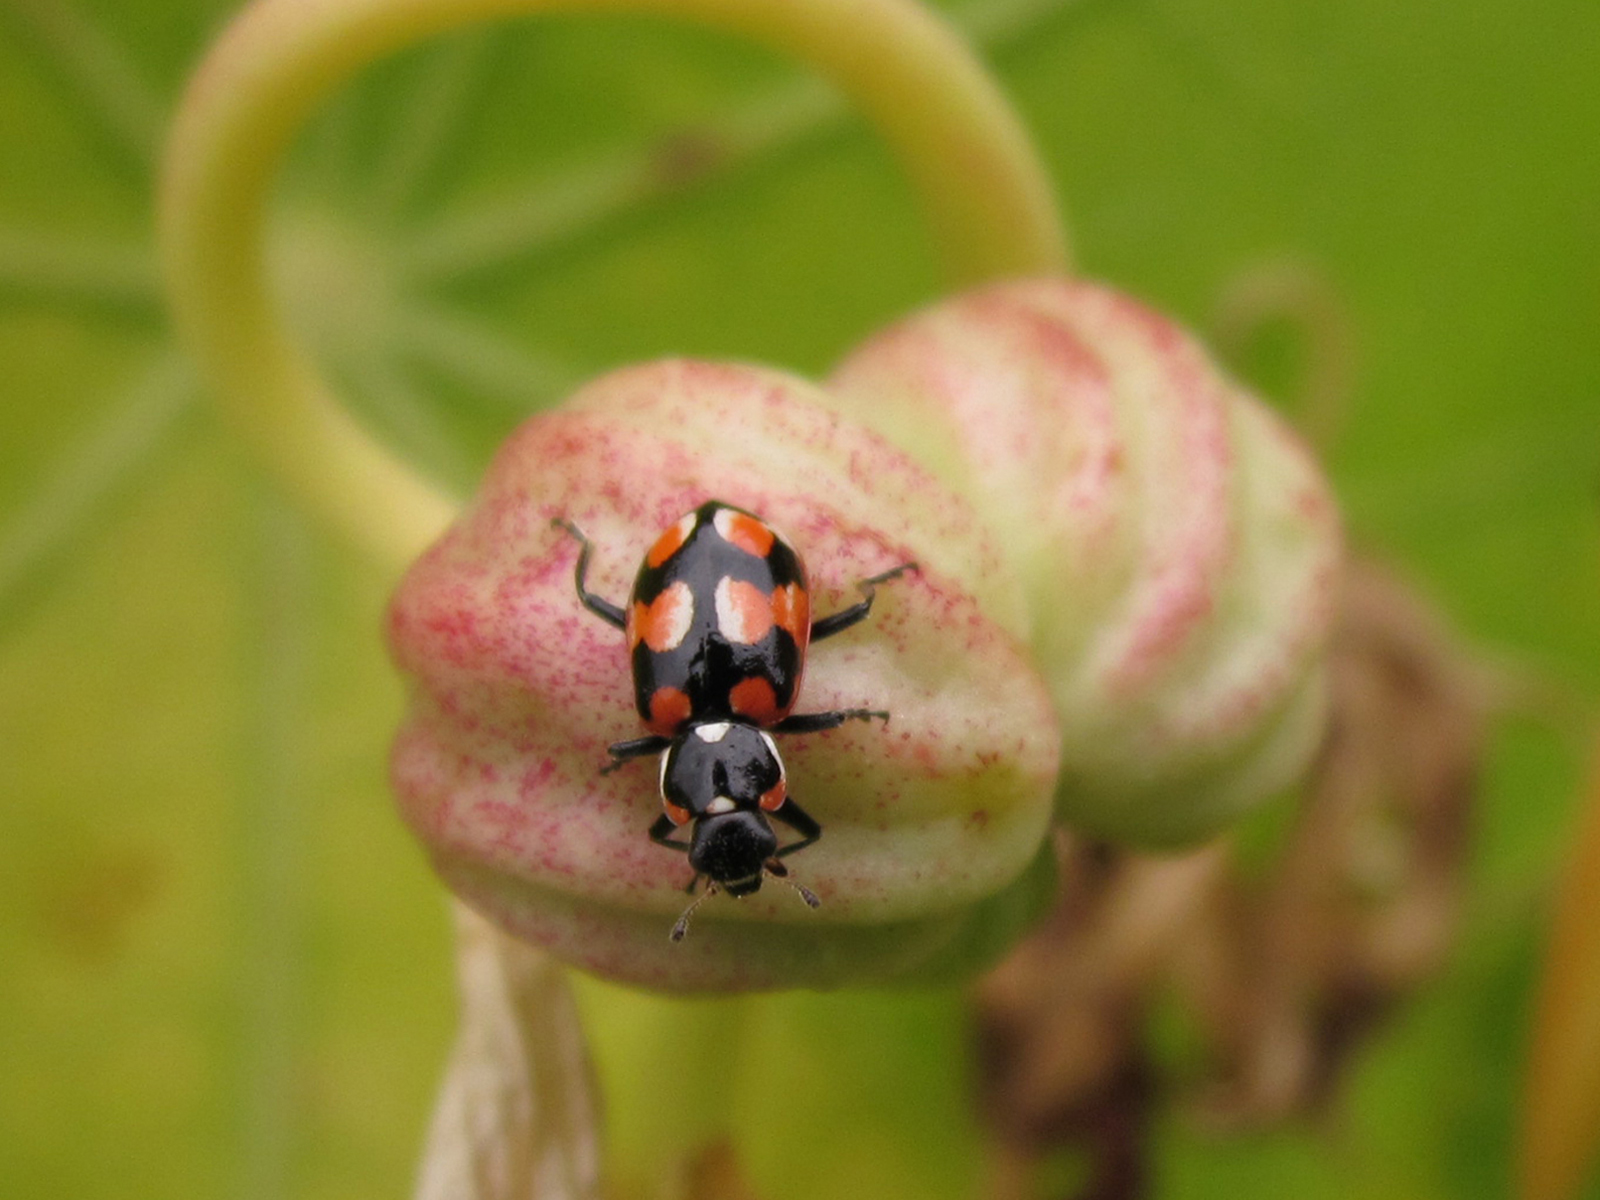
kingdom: Animalia
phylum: Arthropoda
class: Insecta
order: Coleoptera
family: Coccinellidae
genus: Eriopis
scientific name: Eriopis chilensis
